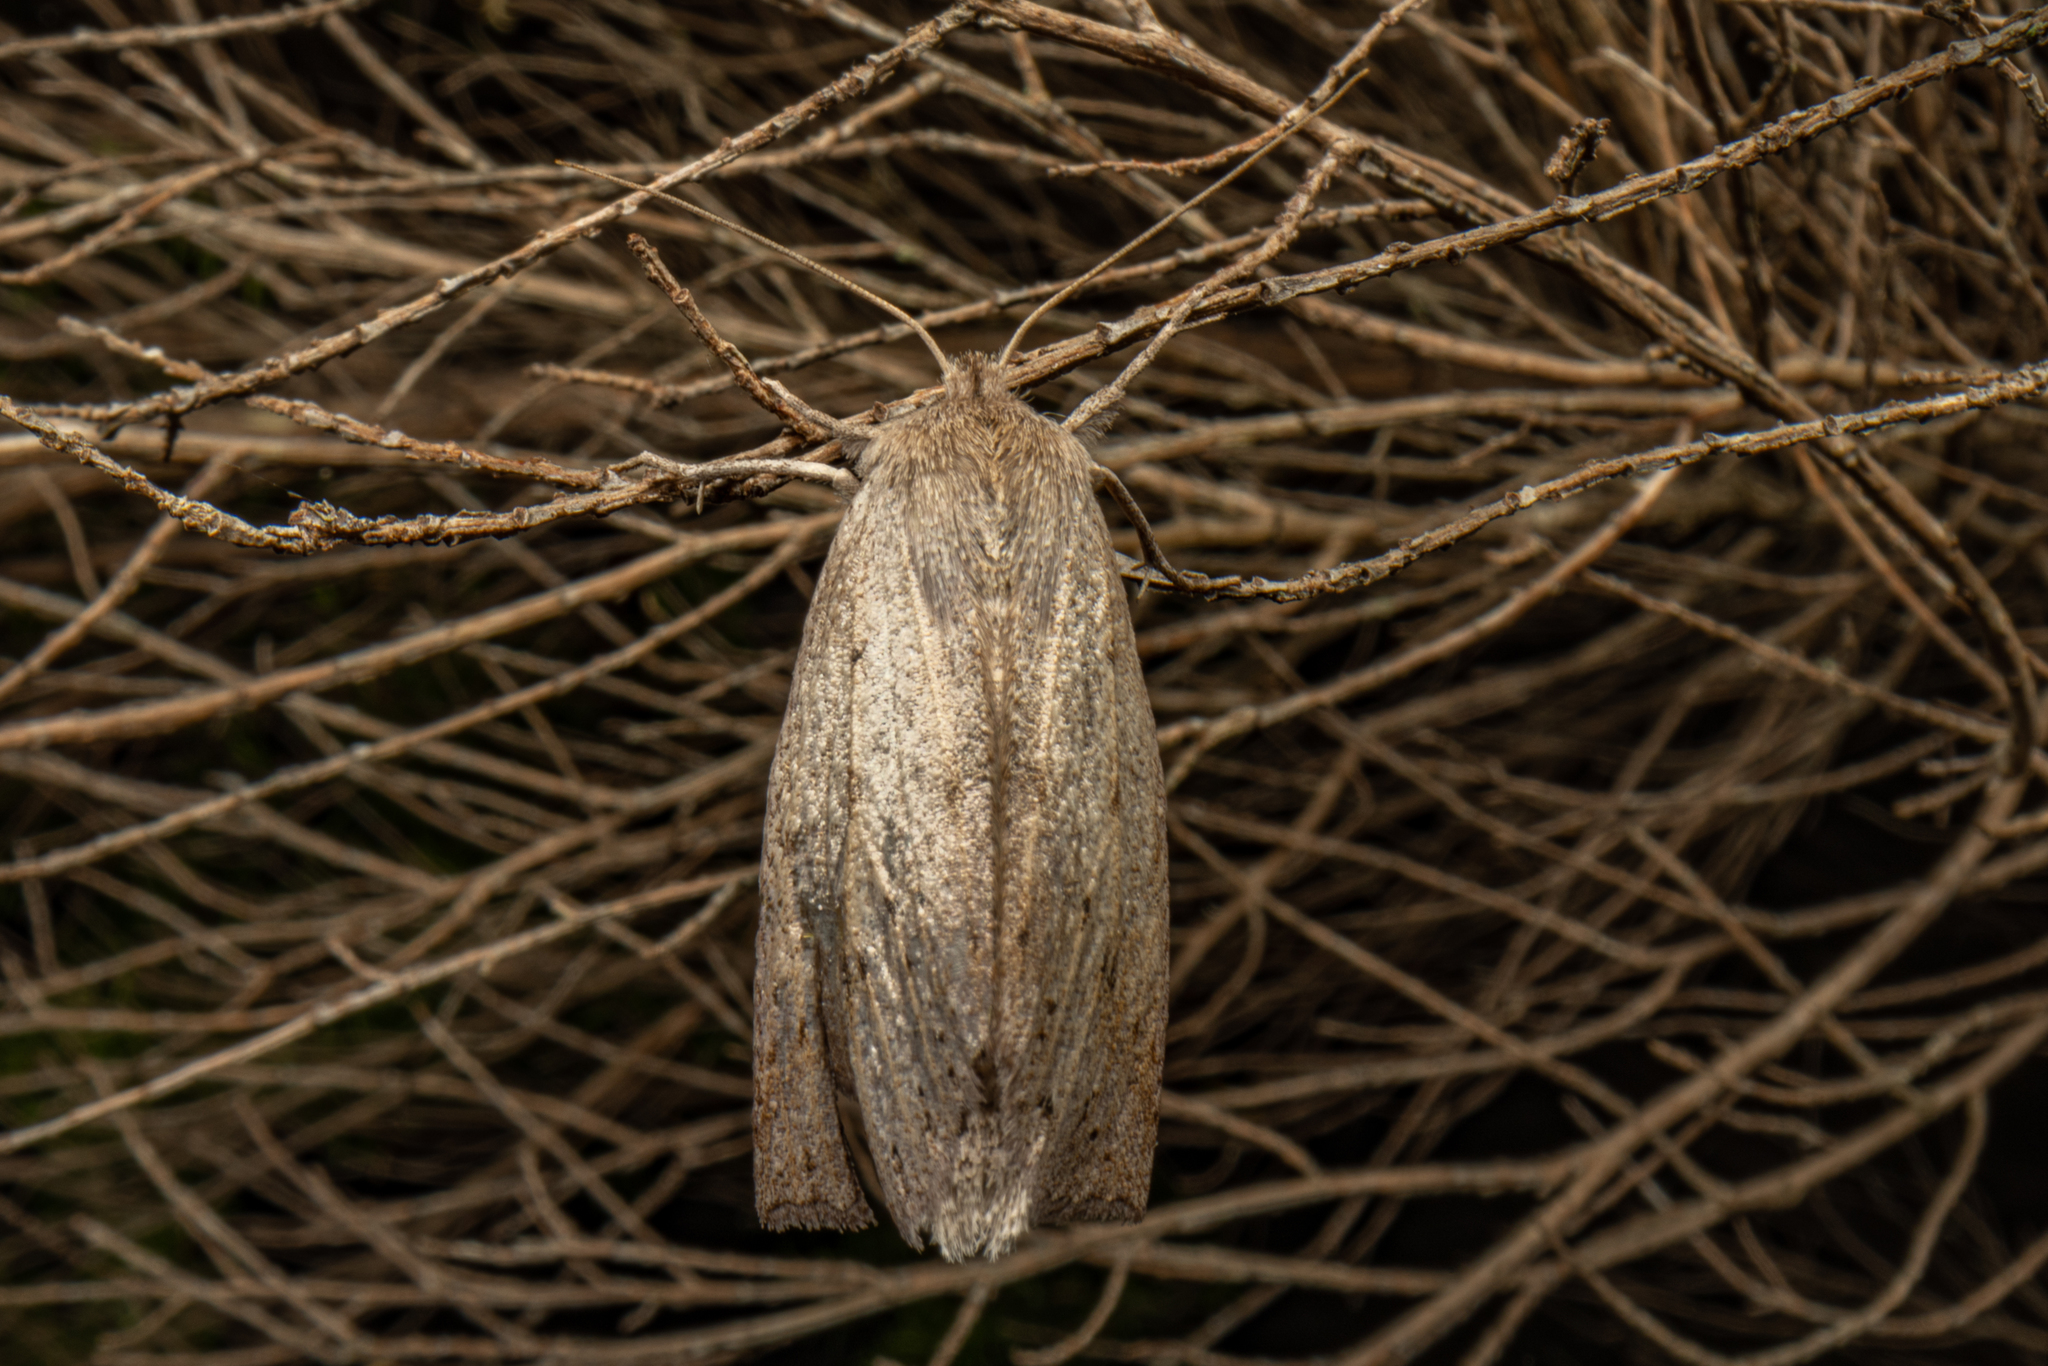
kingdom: Animalia
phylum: Arthropoda
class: Insecta
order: Lepidoptera
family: Geometridae
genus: Declana
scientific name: Declana leptomera
